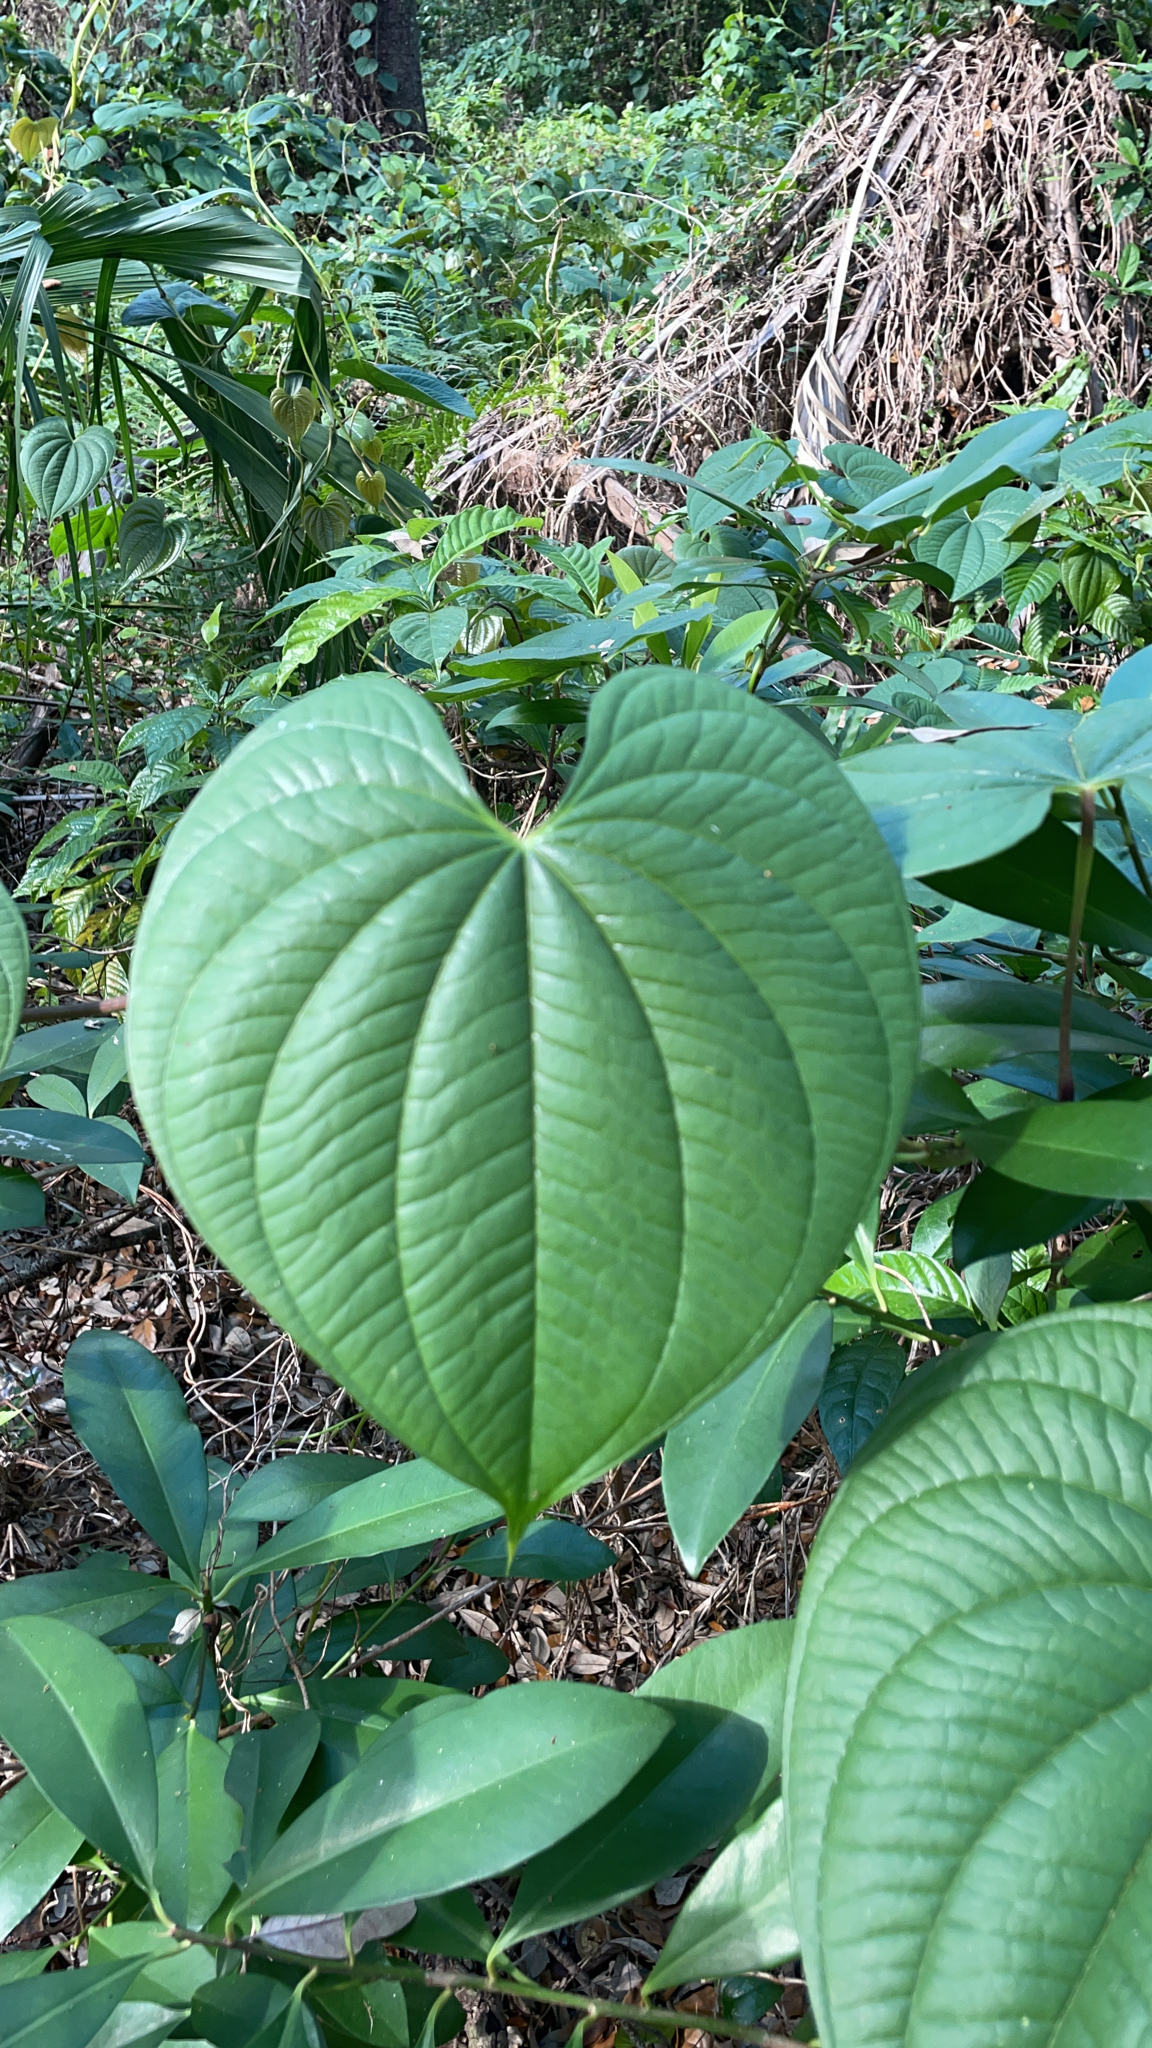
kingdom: Plantae
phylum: Tracheophyta
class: Liliopsida
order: Dioscoreales
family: Dioscoreaceae
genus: Dioscorea
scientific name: Dioscorea bulbifera
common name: Air yam
